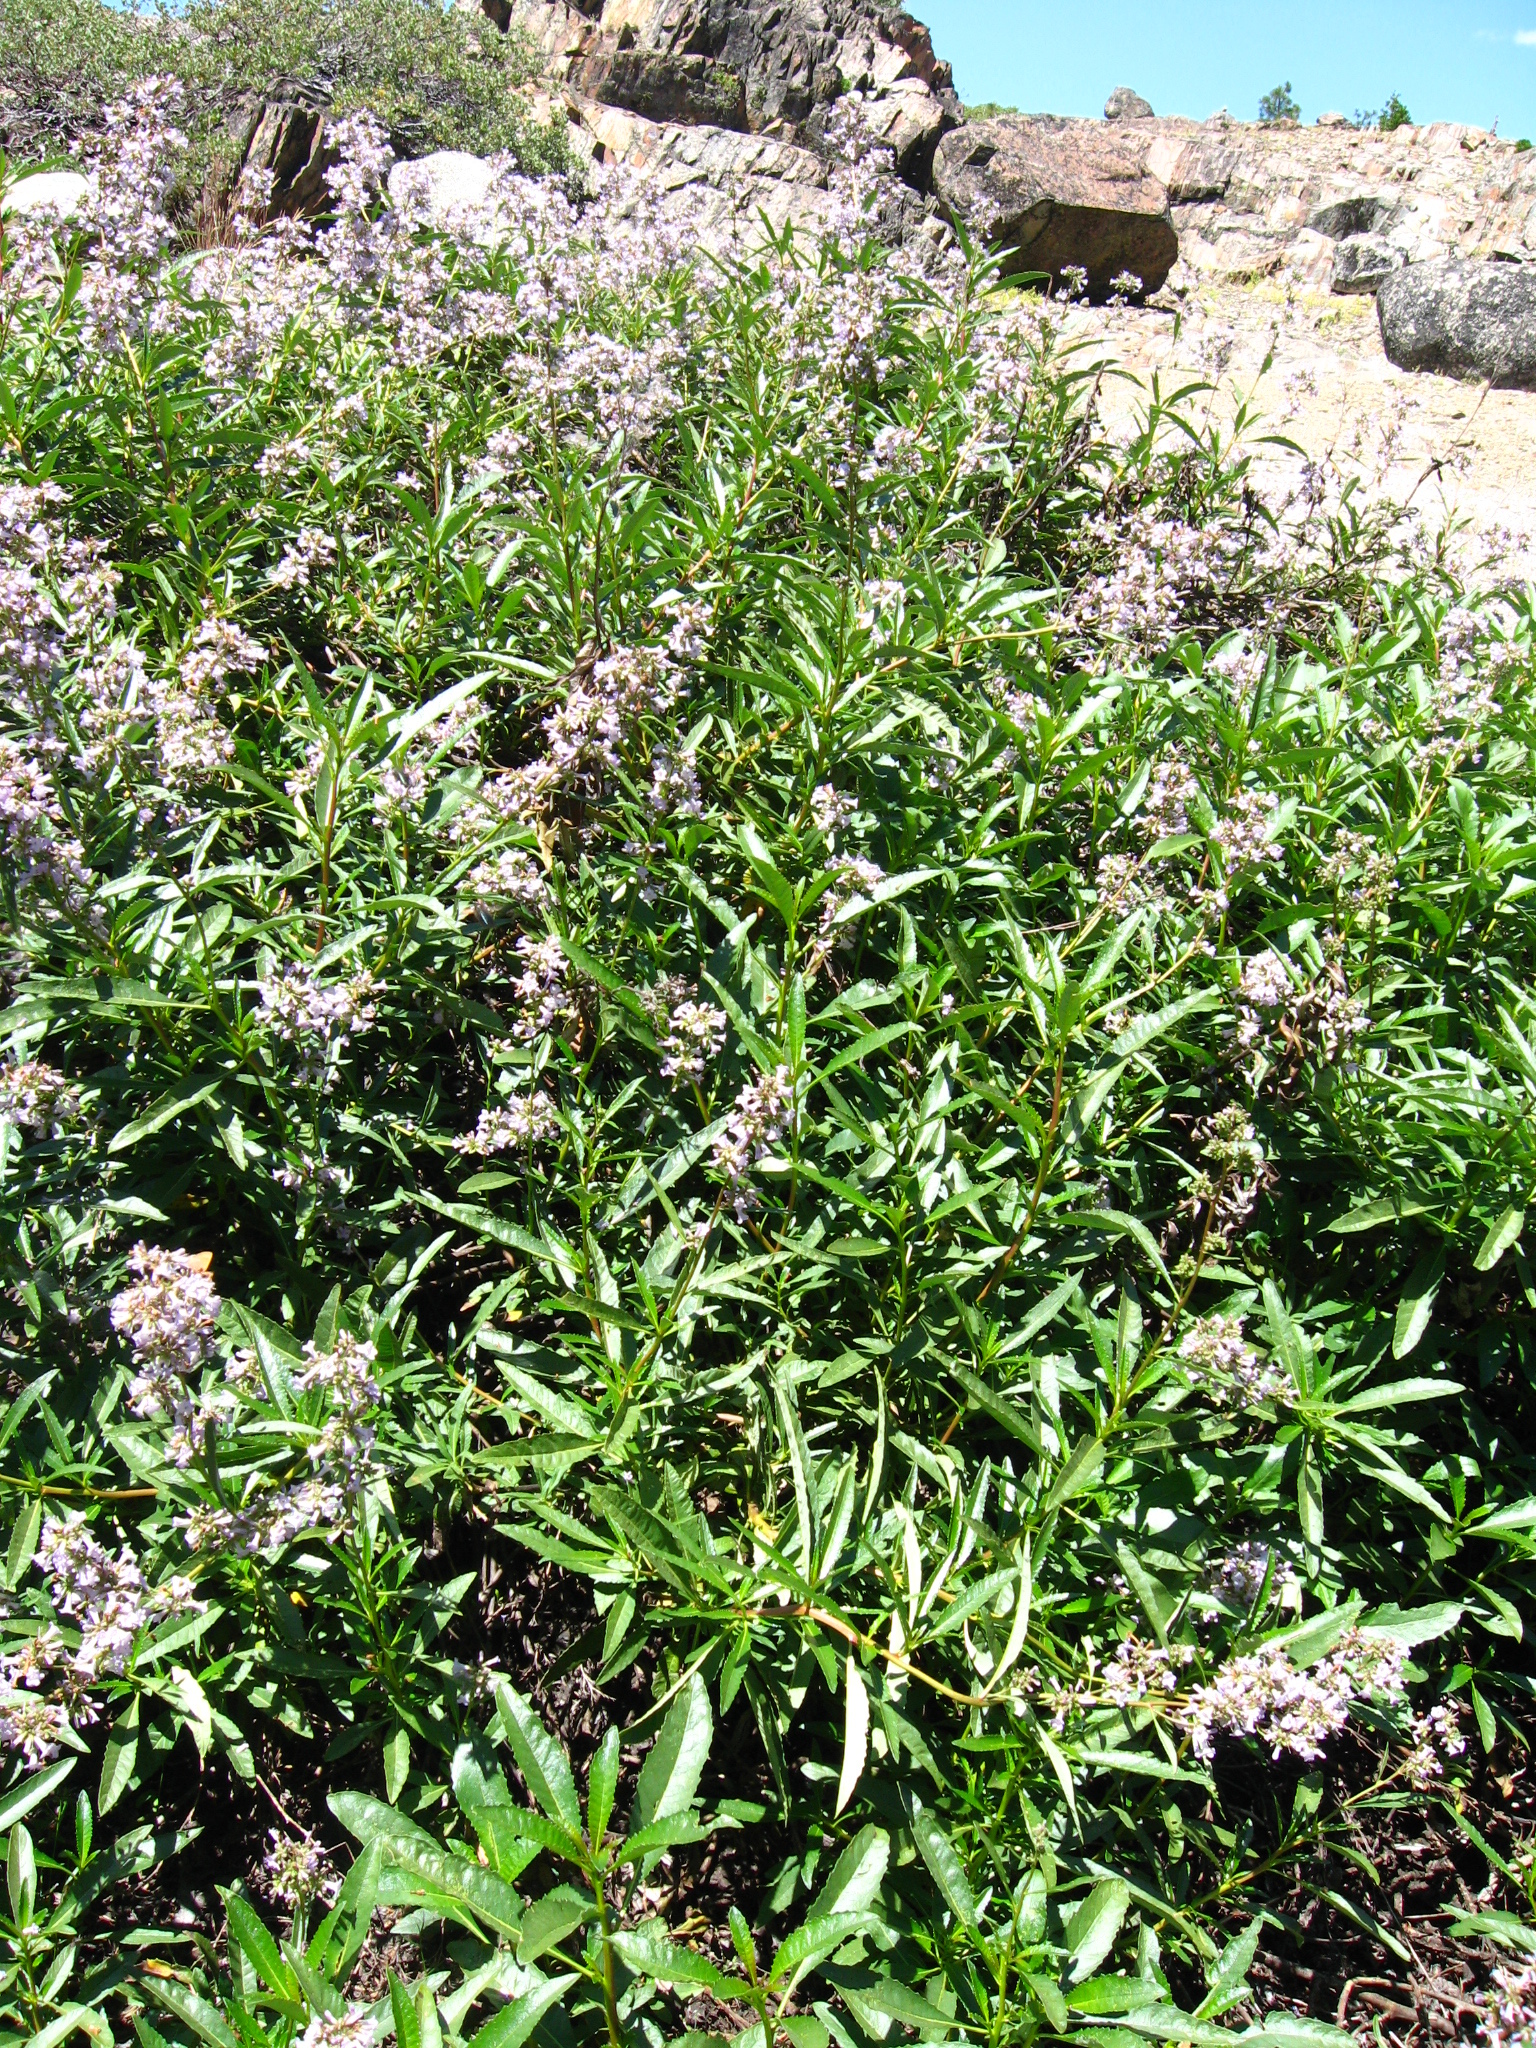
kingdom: Plantae
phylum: Tracheophyta
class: Magnoliopsida
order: Boraginales
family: Namaceae
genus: Eriodictyon
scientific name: Eriodictyon californicum
